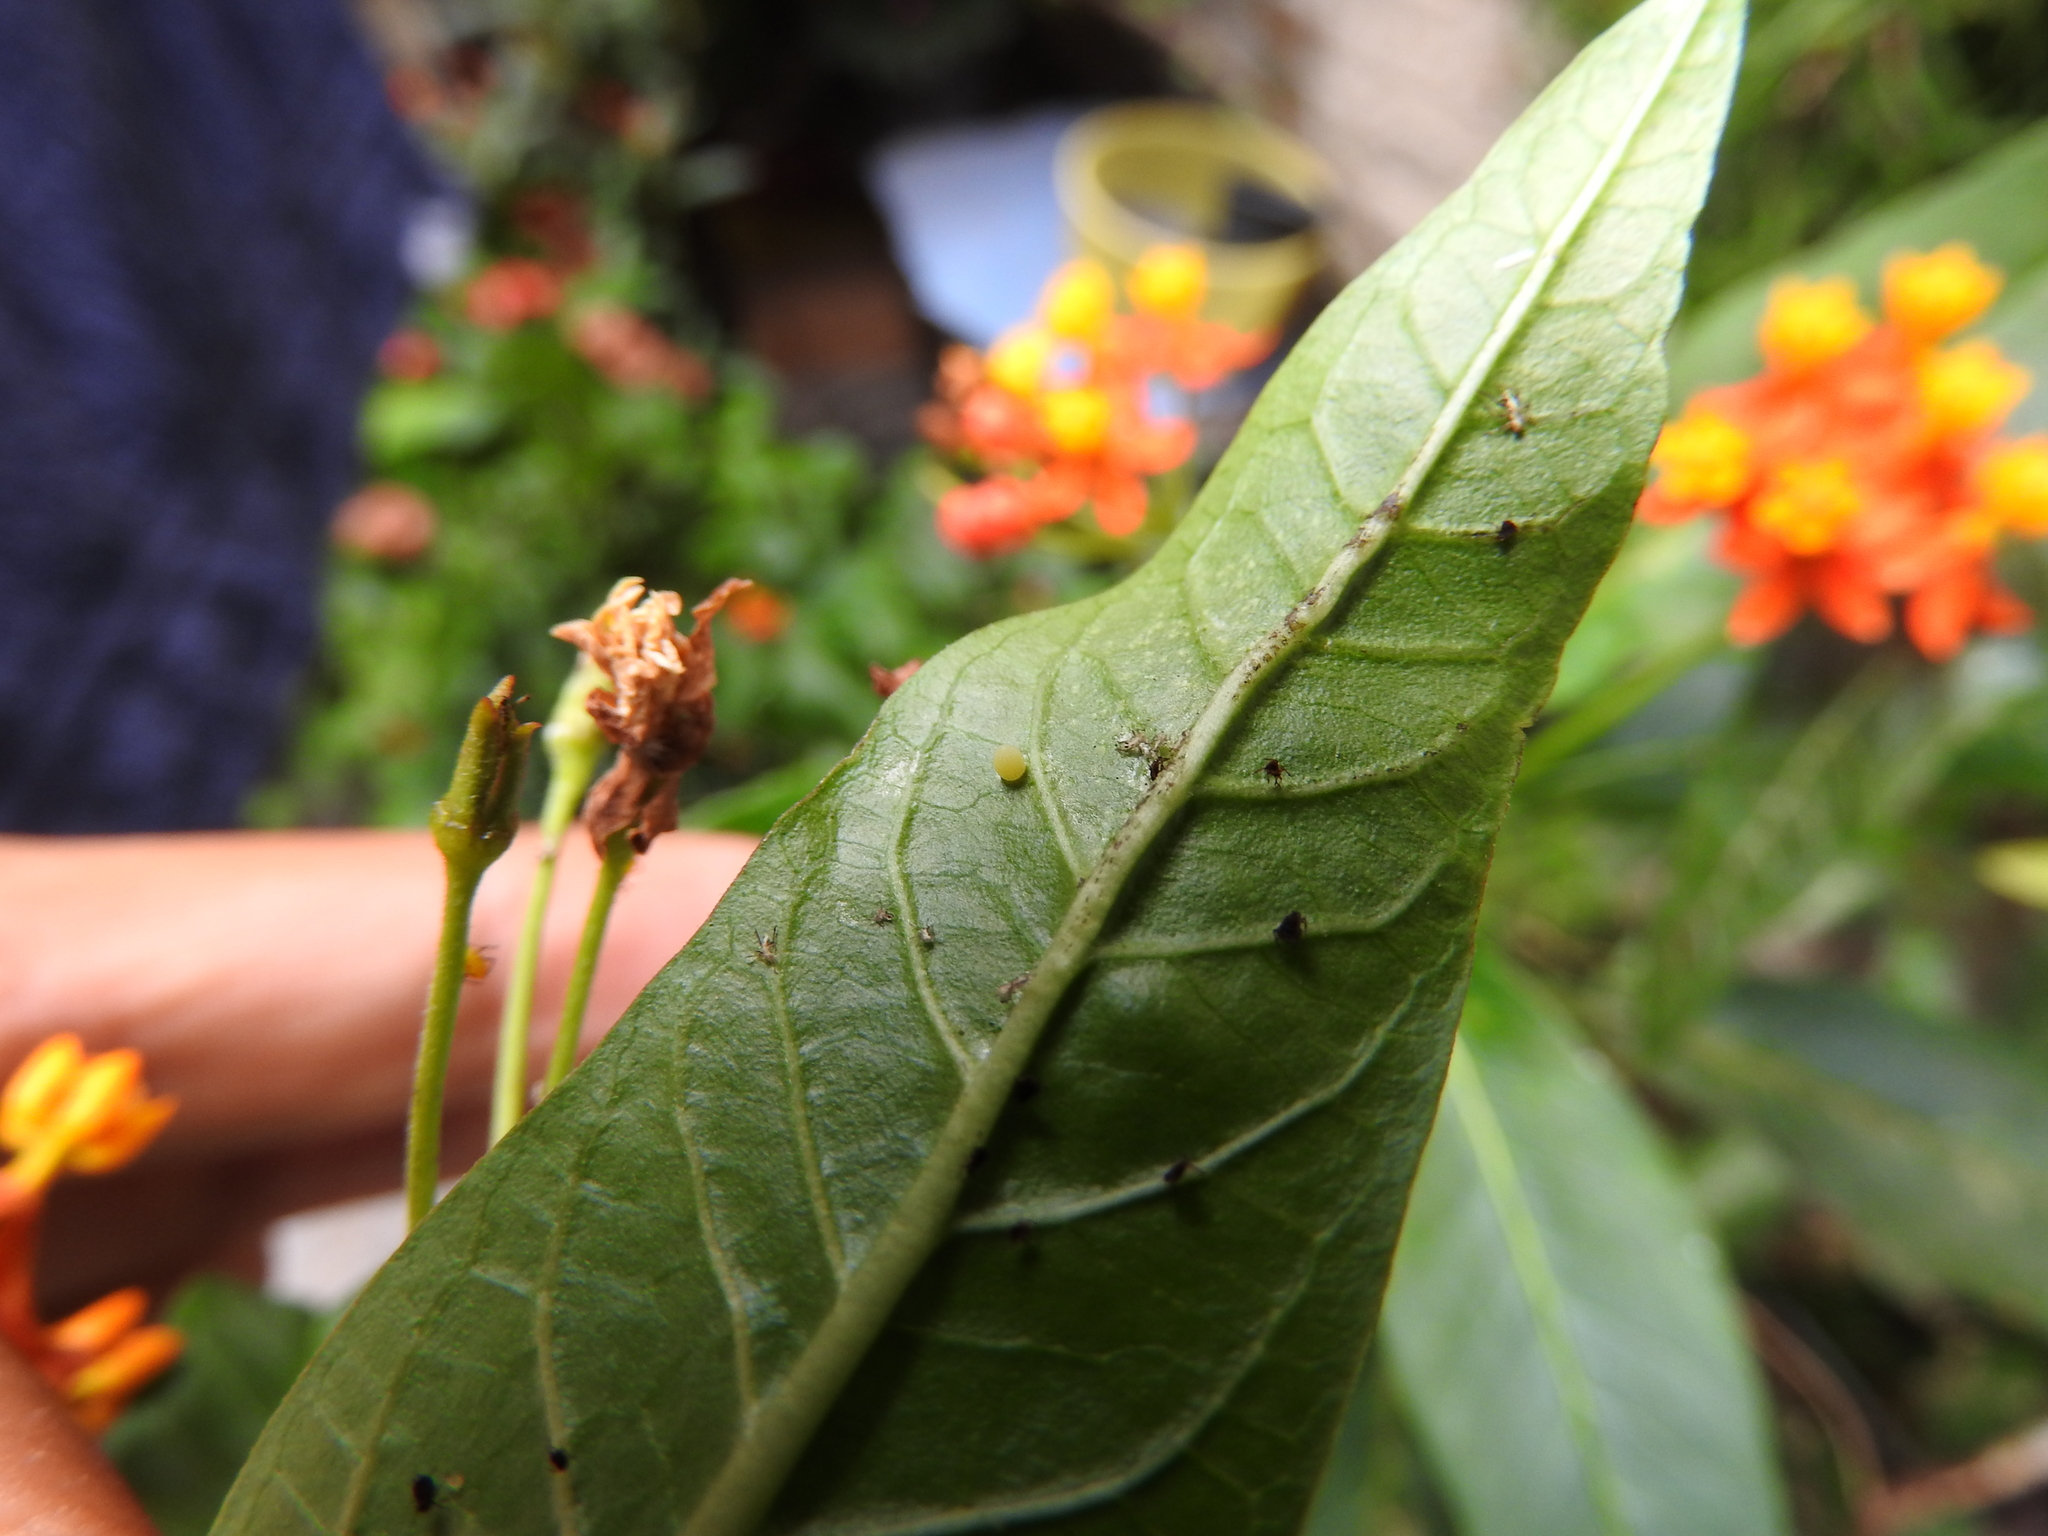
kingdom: Animalia
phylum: Arthropoda
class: Insecta
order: Lepidoptera
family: Nymphalidae
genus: Danaus
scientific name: Danaus plexippus
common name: Monarch
